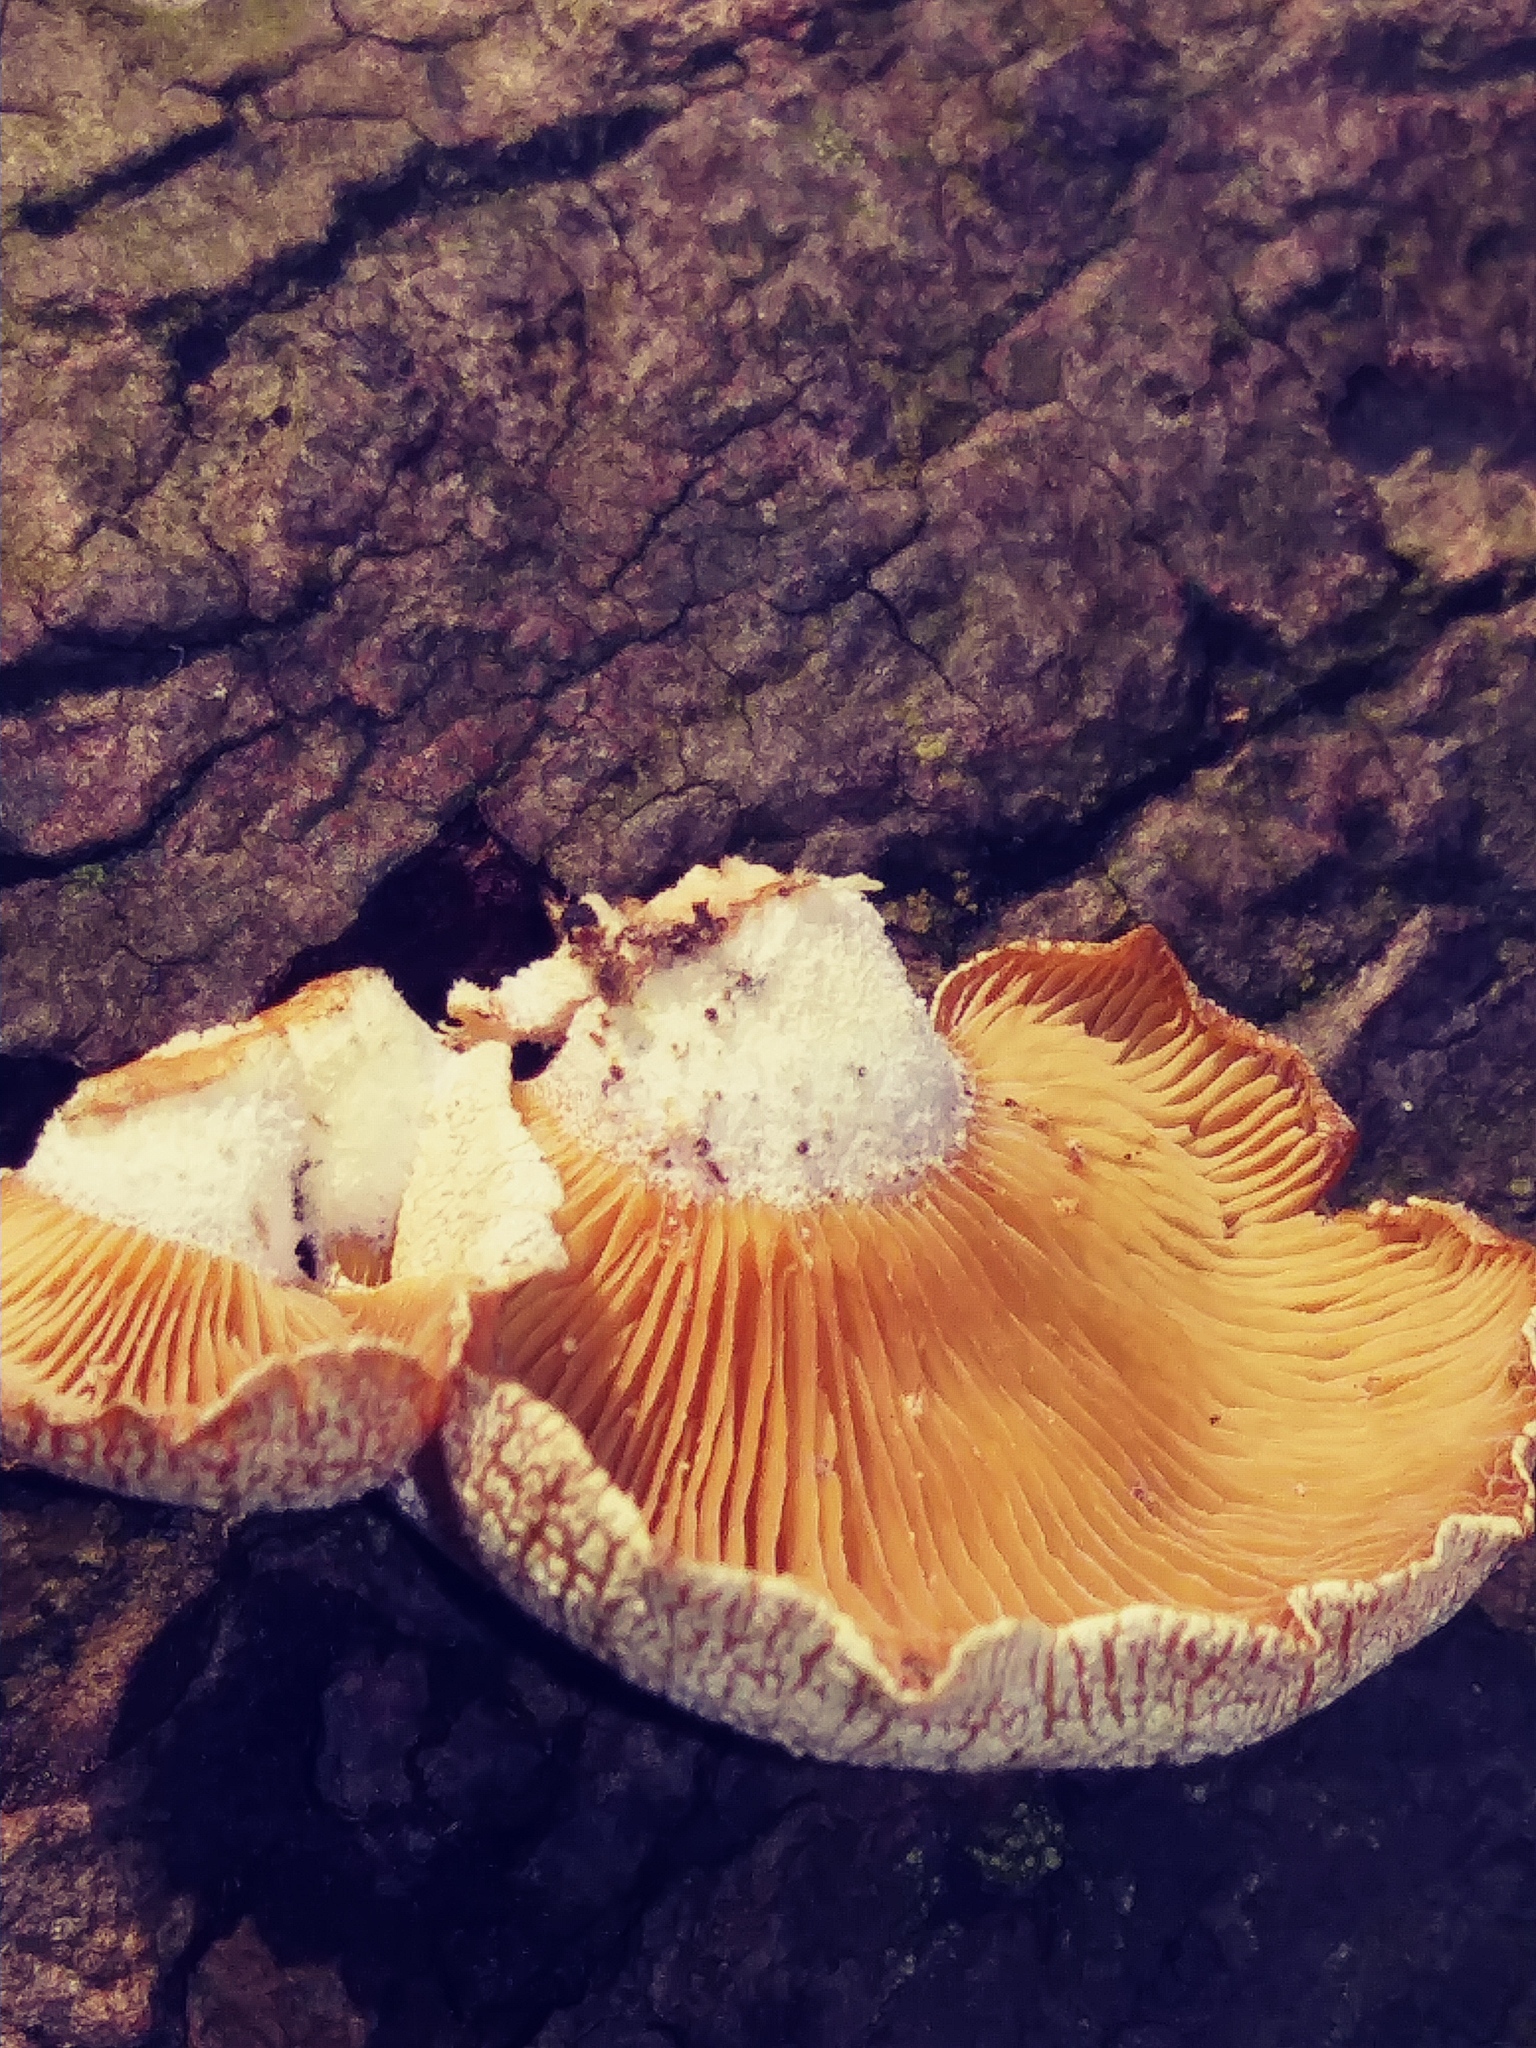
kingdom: Fungi
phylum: Basidiomycota
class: Agaricomycetes
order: Agaricales
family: Mycenaceae
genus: Panellus
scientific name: Panellus stipticus
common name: Bitter oysterling
